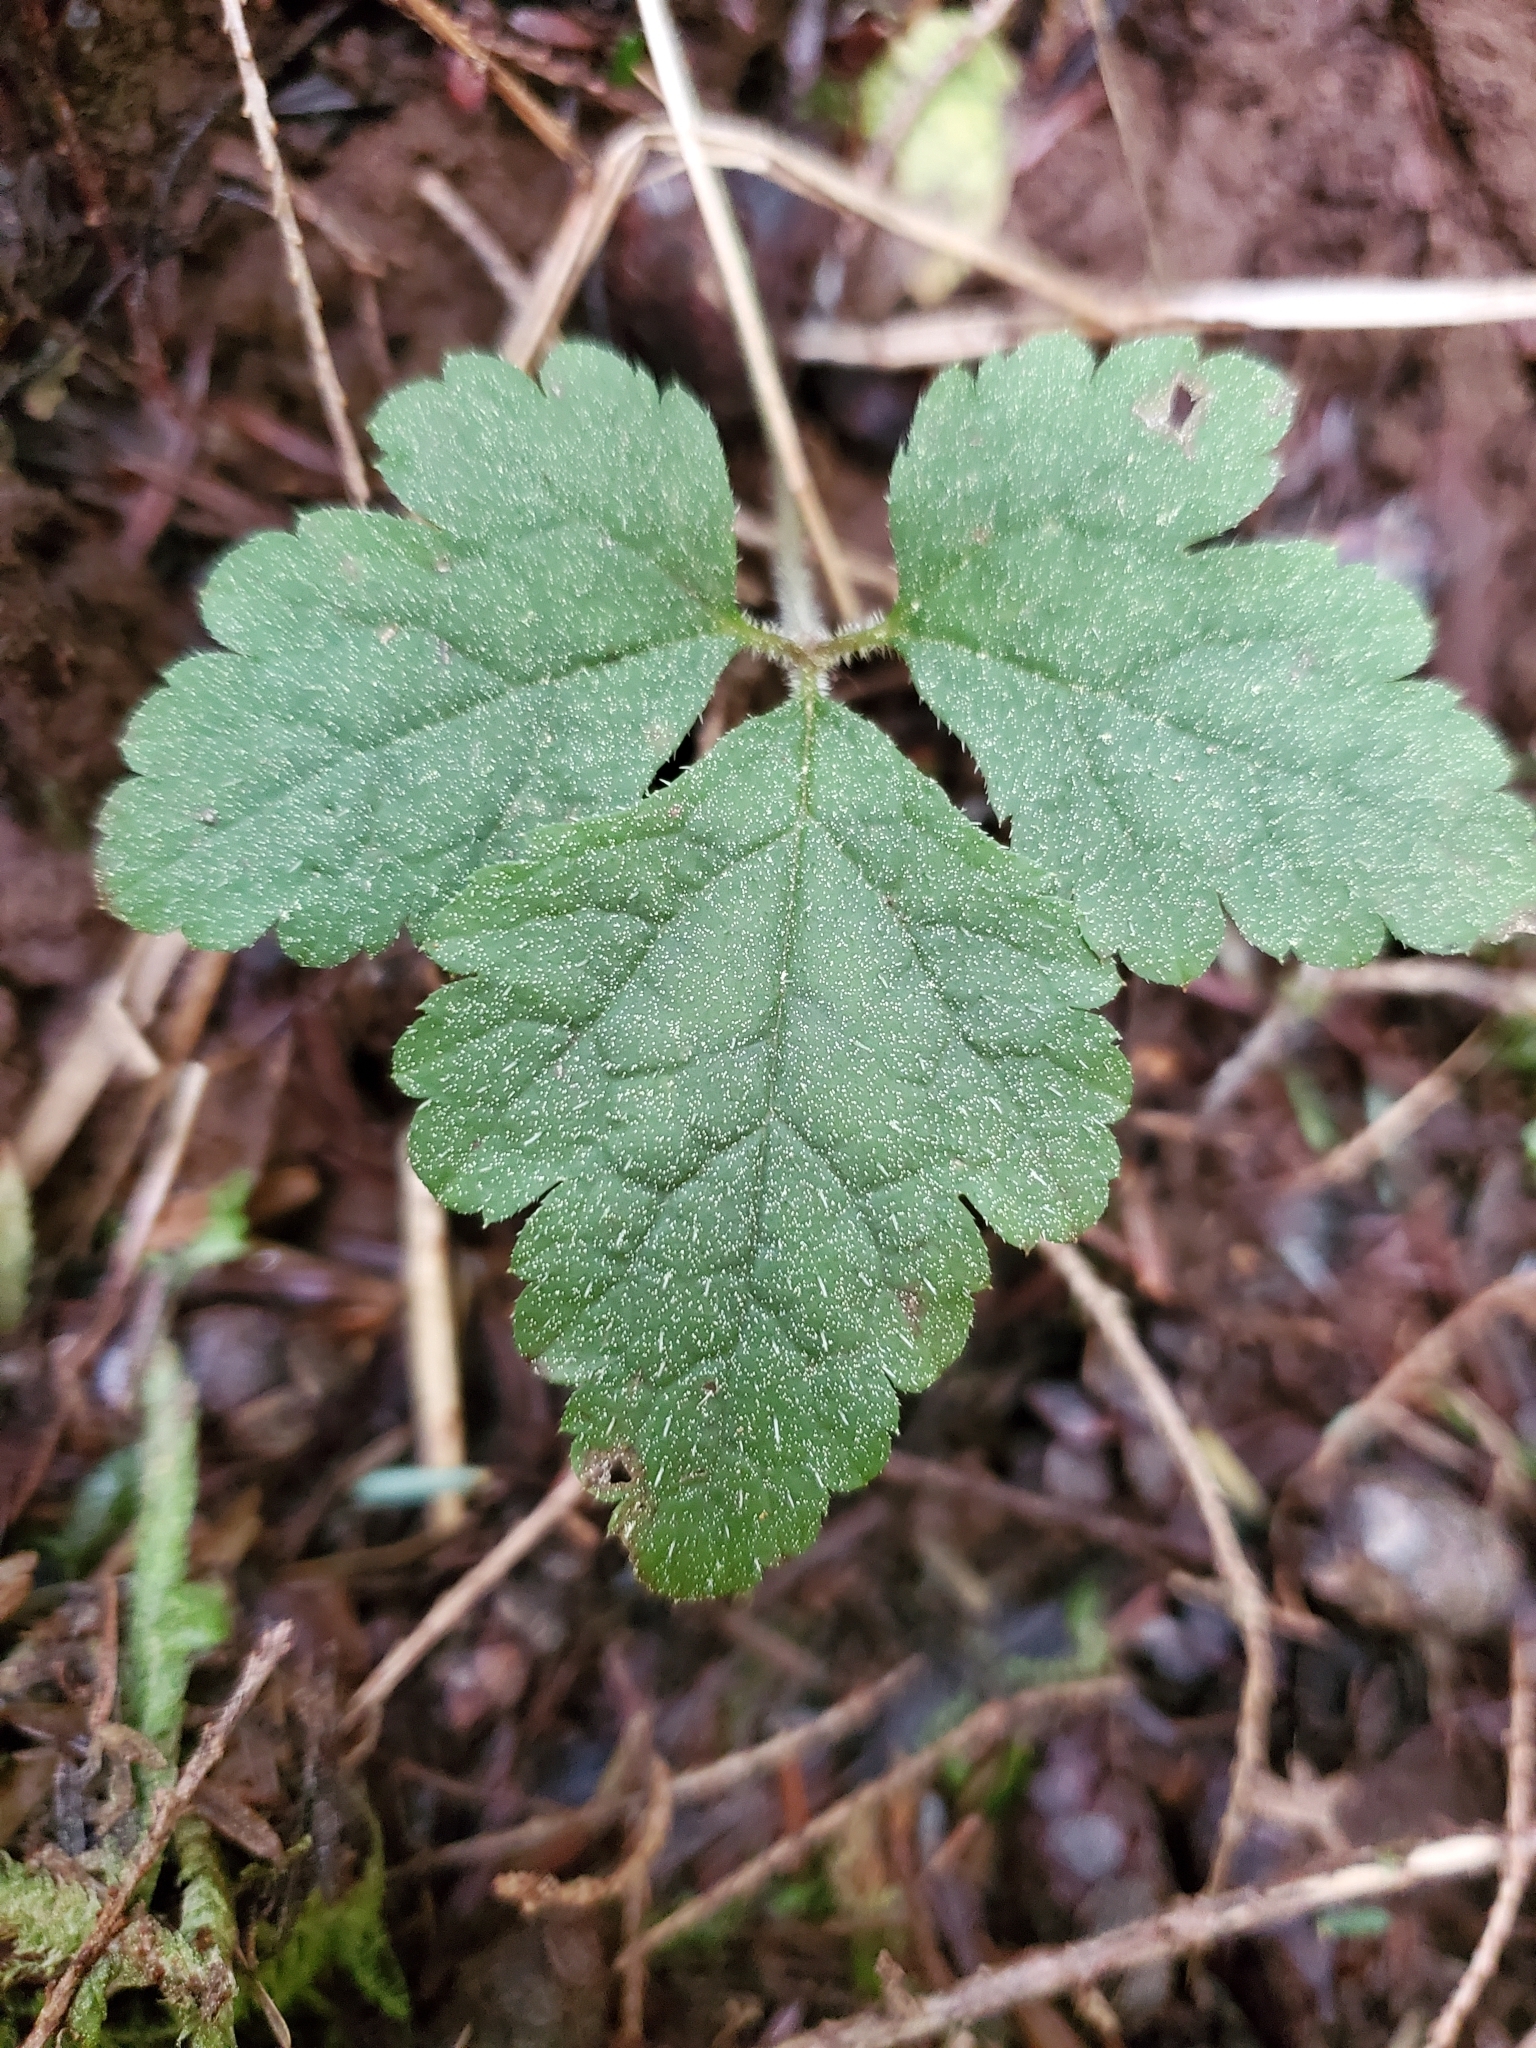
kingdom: Plantae
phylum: Tracheophyta
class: Magnoliopsida
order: Saxifragales
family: Saxifragaceae
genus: Tiarella
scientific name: Tiarella trifoliata
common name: Sugar-scoop
